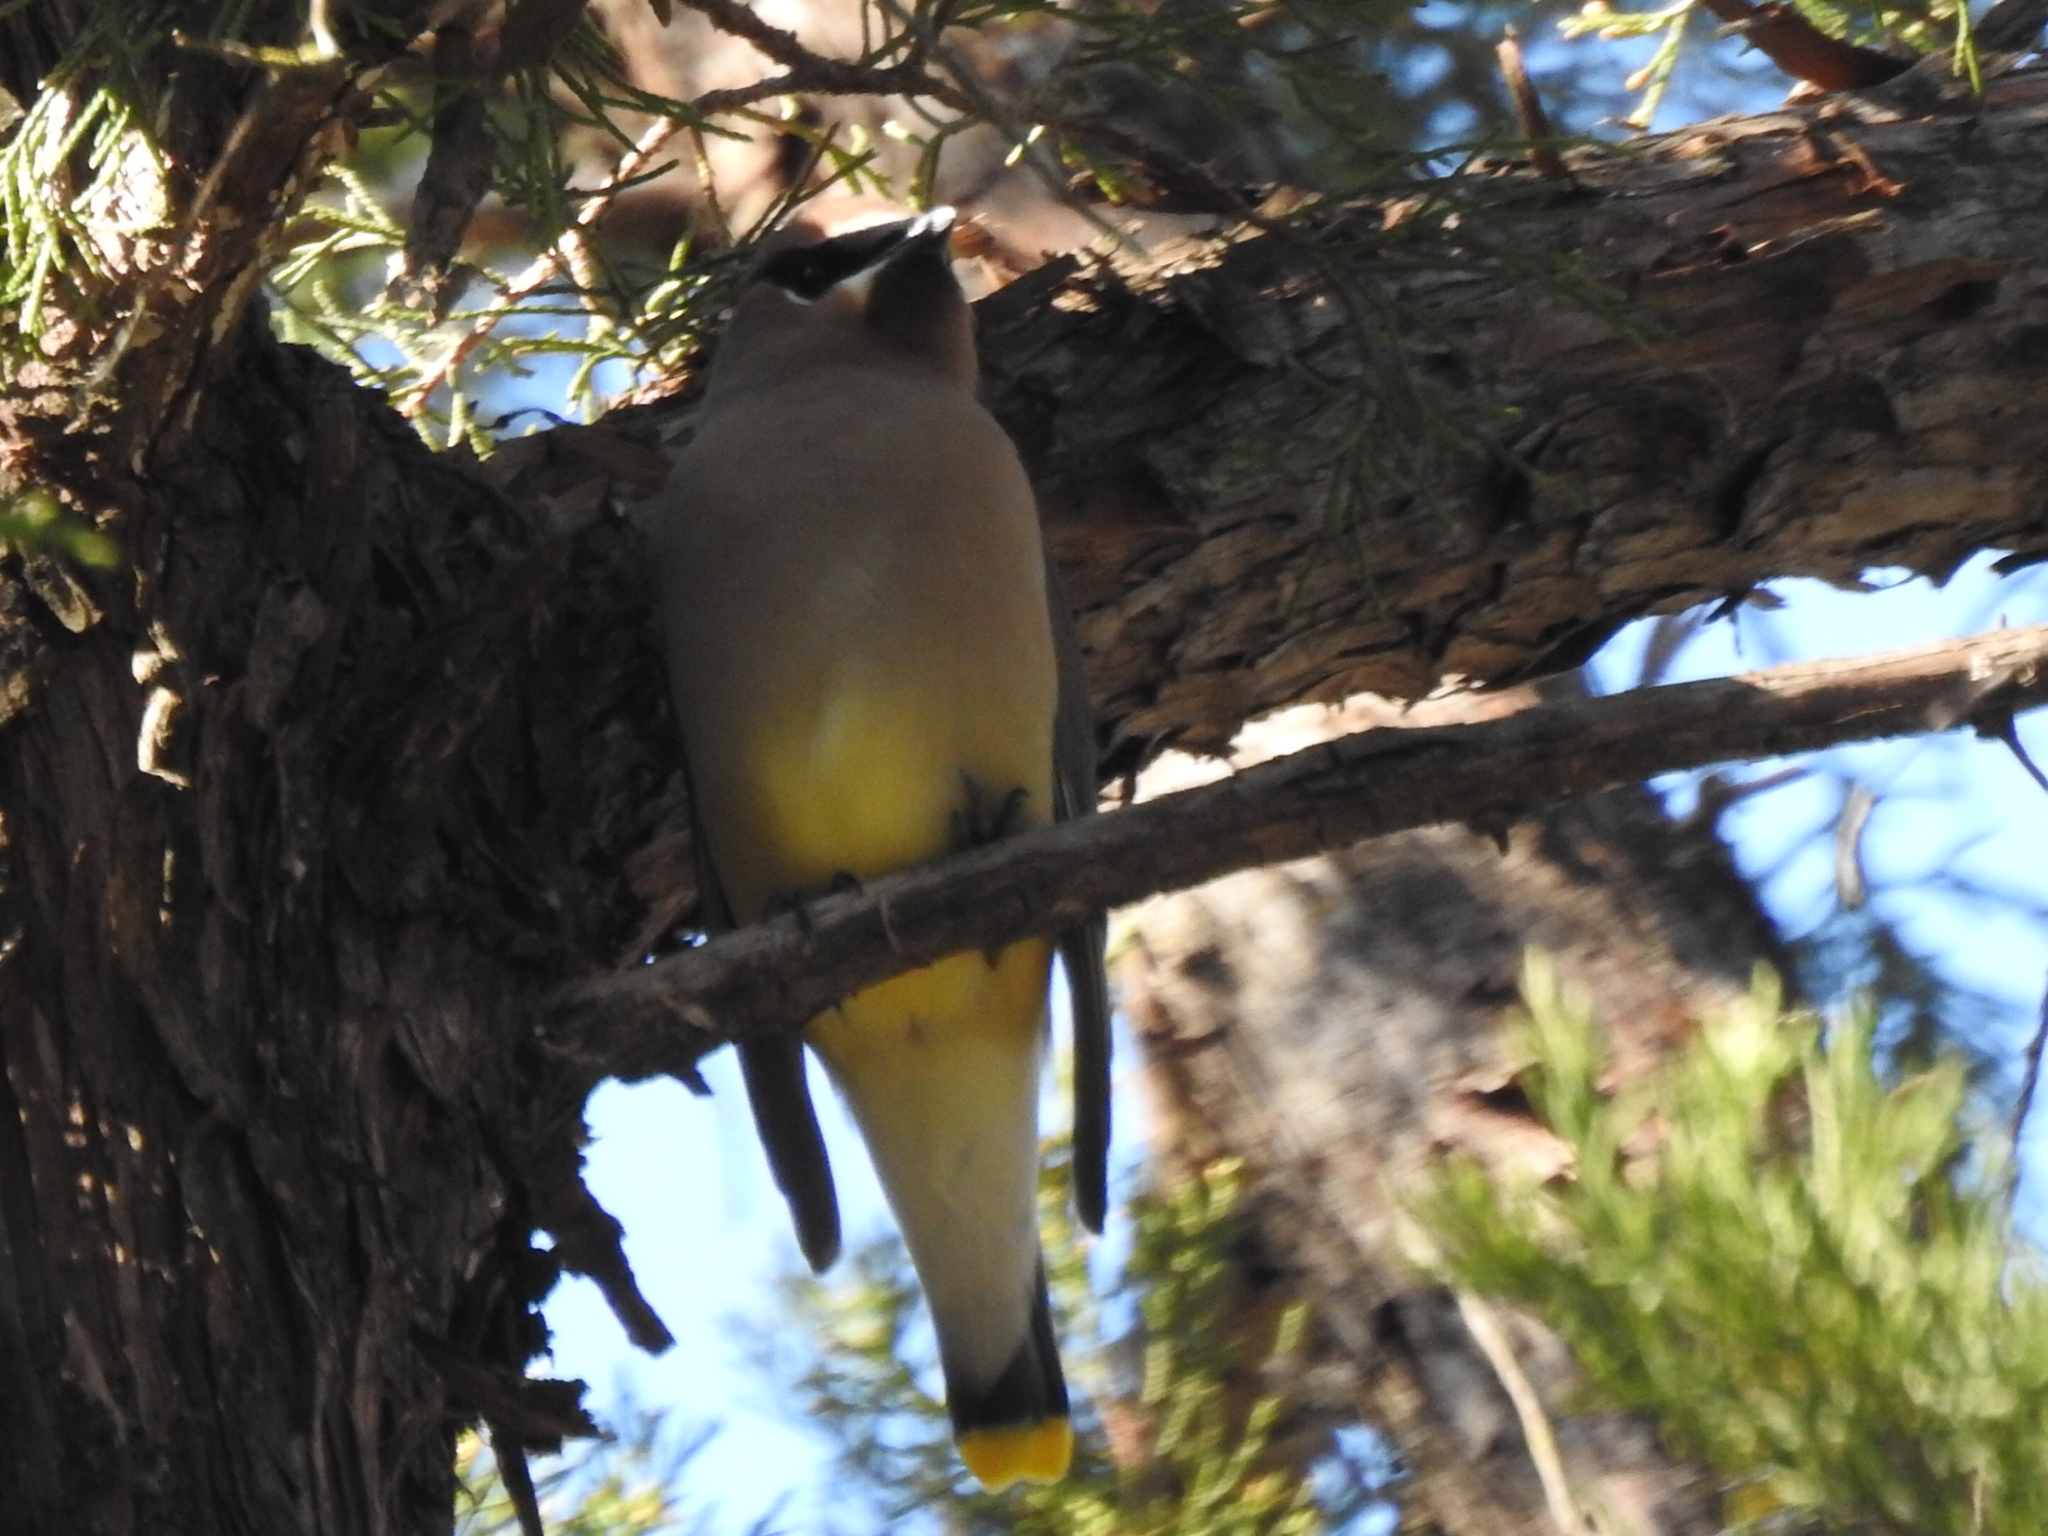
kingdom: Animalia
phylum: Chordata
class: Aves
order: Passeriformes
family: Bombycillidae
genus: Bombycilla
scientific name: Bombycilla cedrorum
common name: Cedar waxwing
